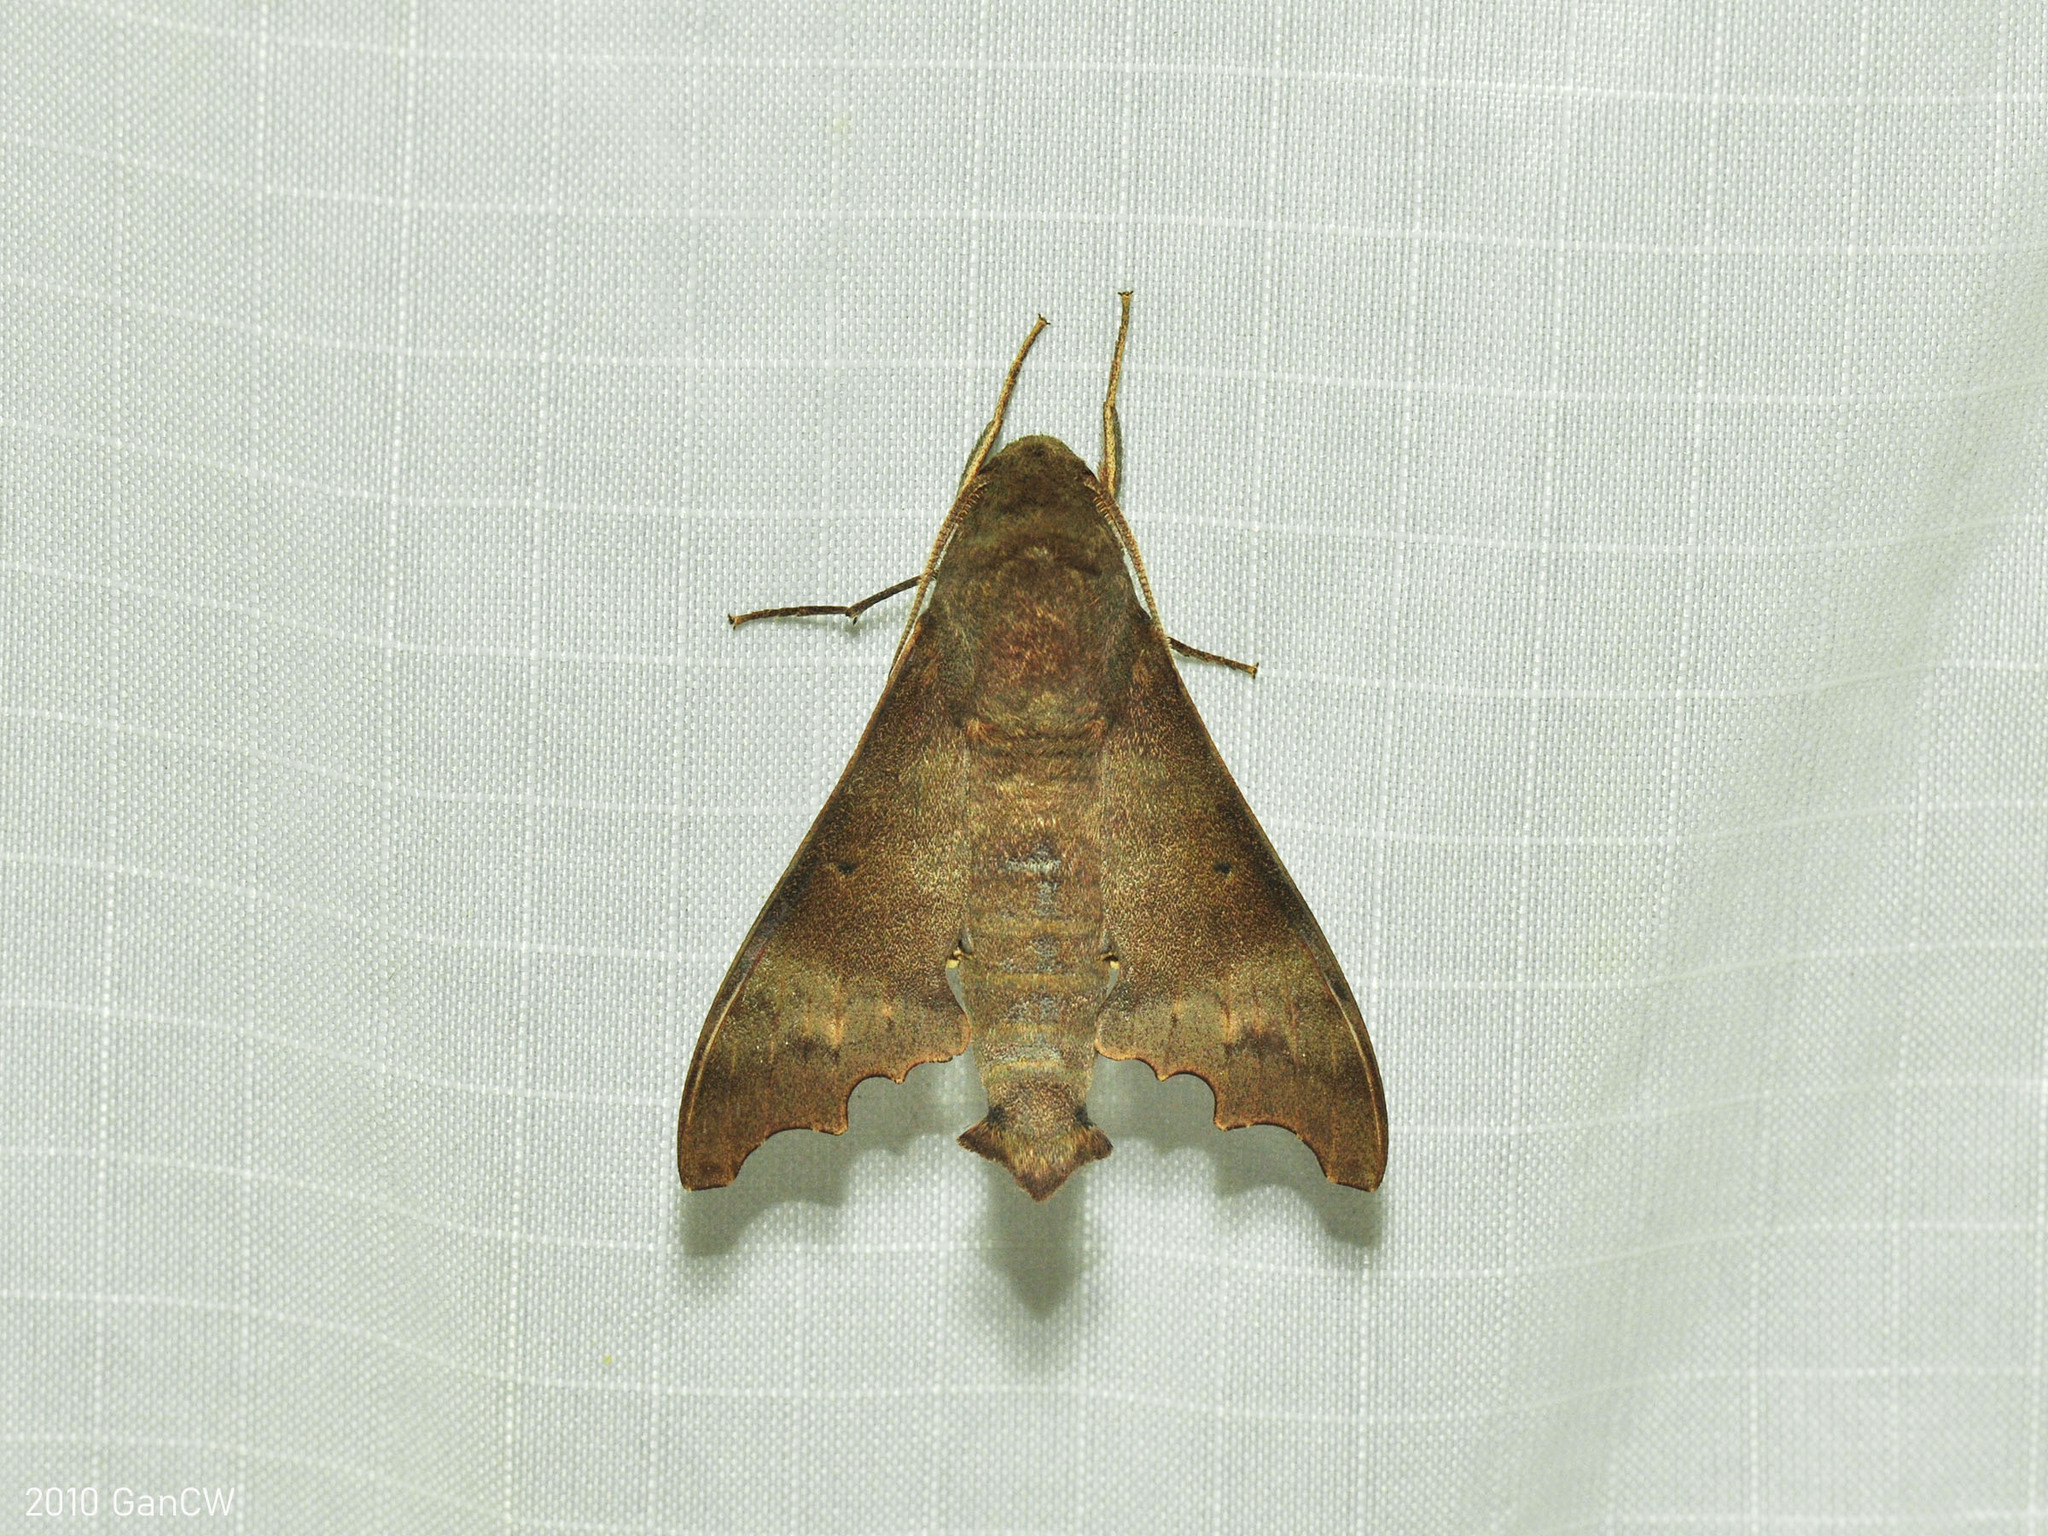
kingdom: Animalia
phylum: Arthropoda
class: Insecta
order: Lepidoptera
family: Sphingidae
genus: Cypa
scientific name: Cypa decolor
